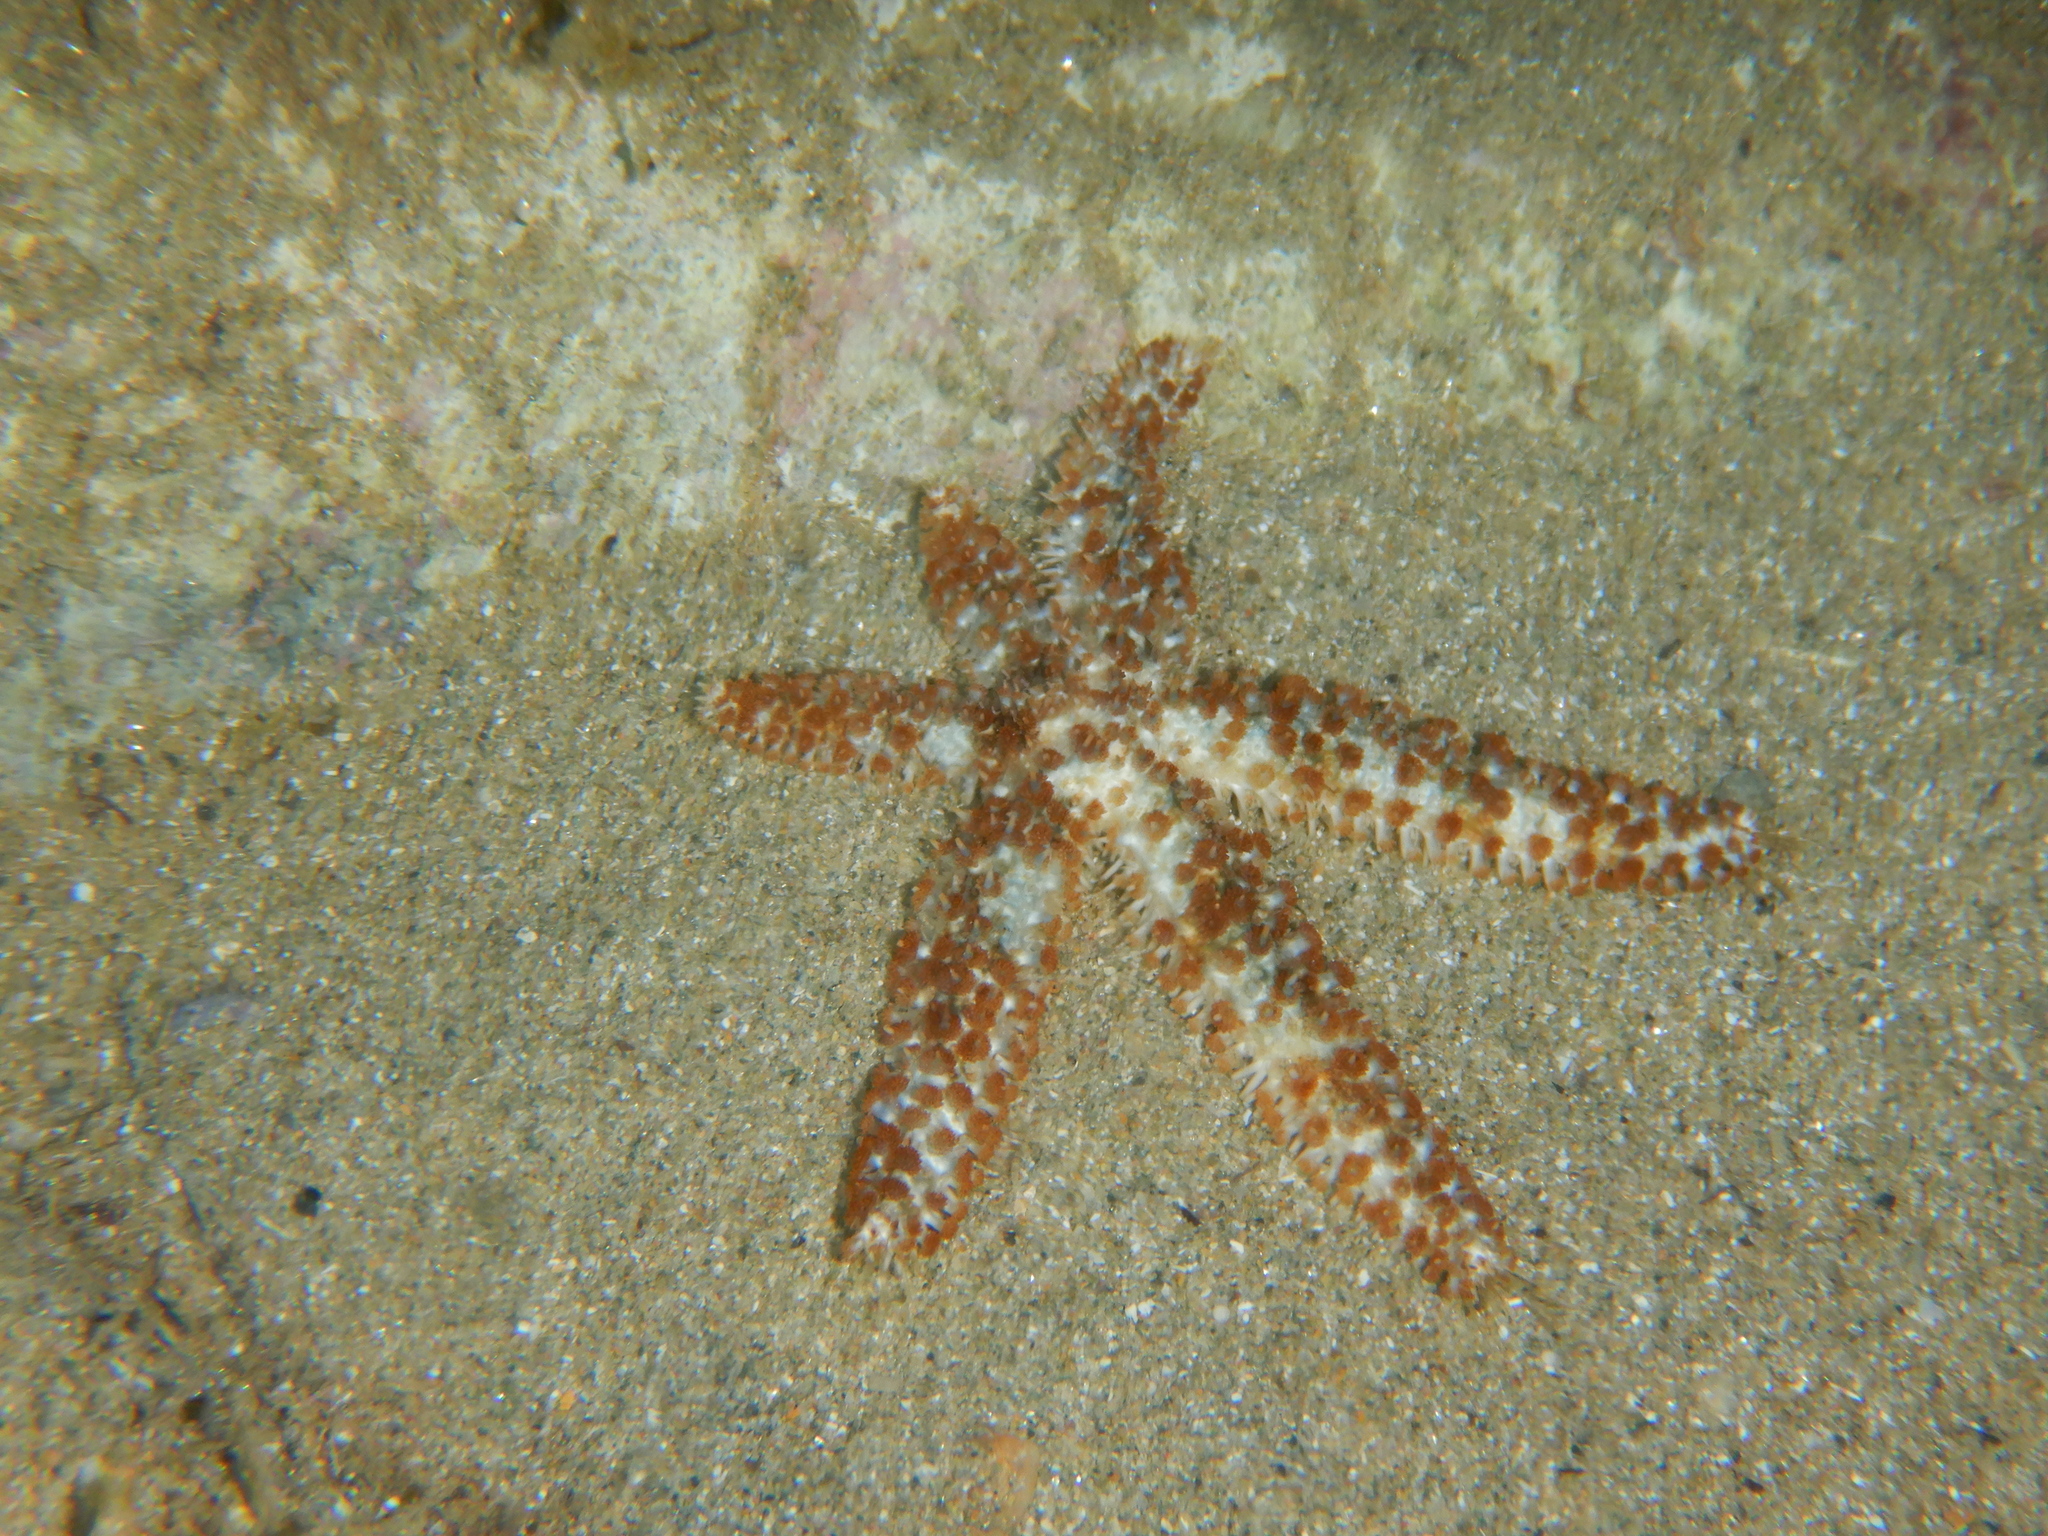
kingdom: Animalia
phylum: Echinodermata
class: Asteroidea
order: Forcipulatida
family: Asteriidae
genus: Coscinasterias
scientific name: Coscinasterias tenuispina
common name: Blue spiny starfish
